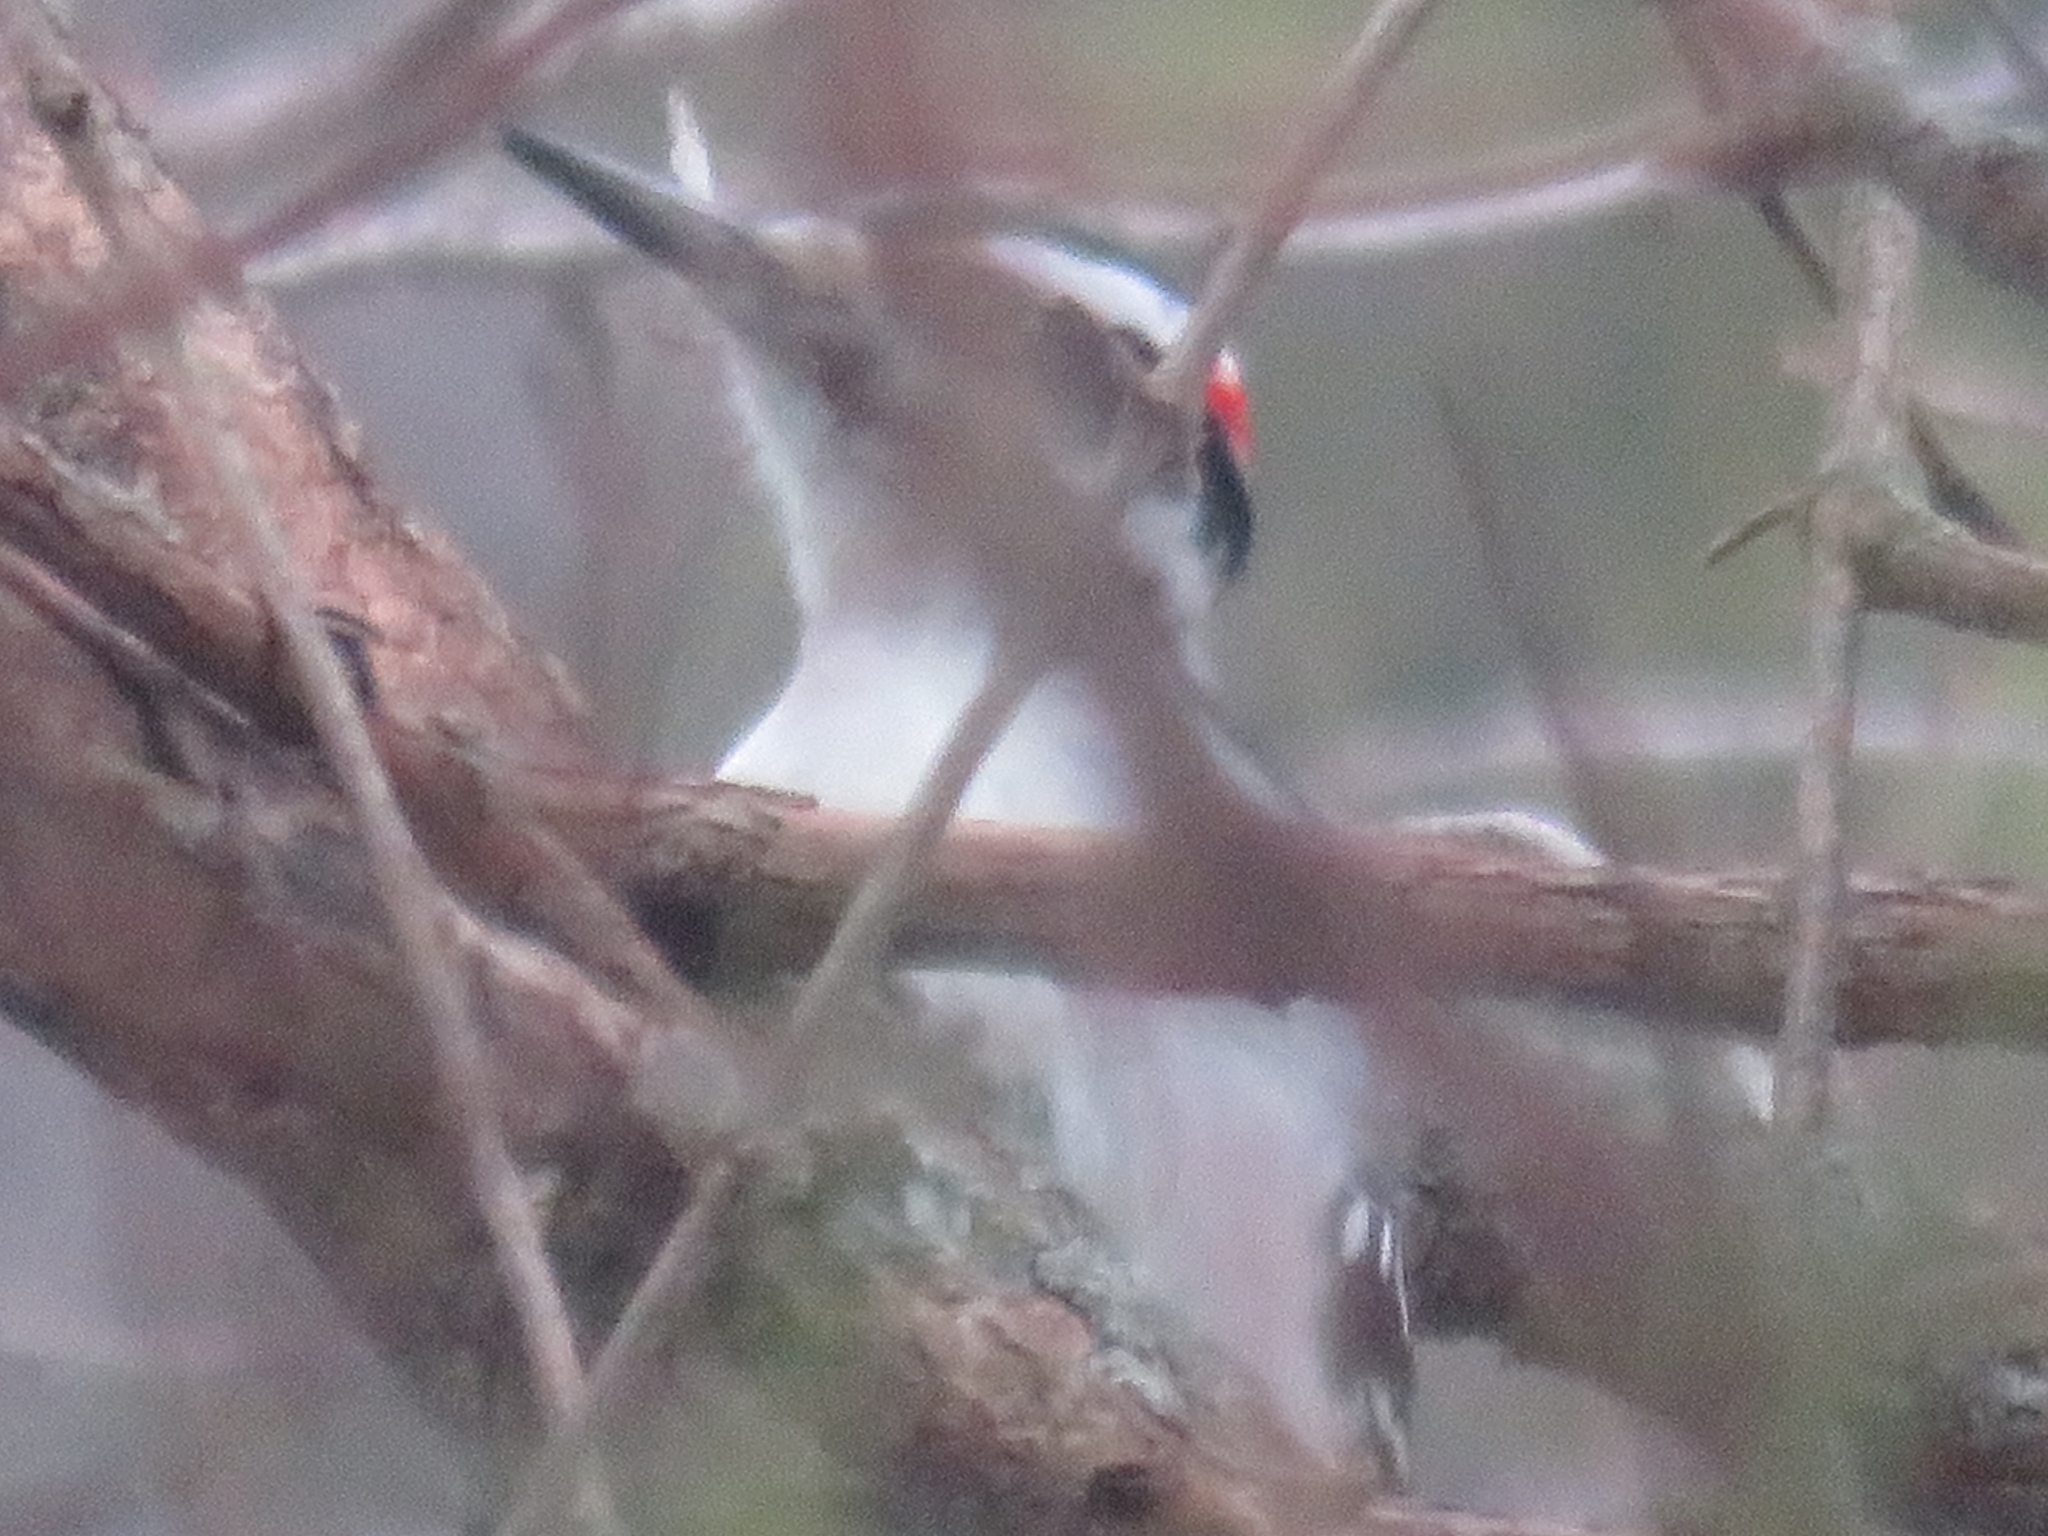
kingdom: Animalia
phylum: Chordata
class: Aves
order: Piciformes
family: Picidae
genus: Leuconotopicus
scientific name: Leuconotopicus villosus
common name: Hairy woodpecker
